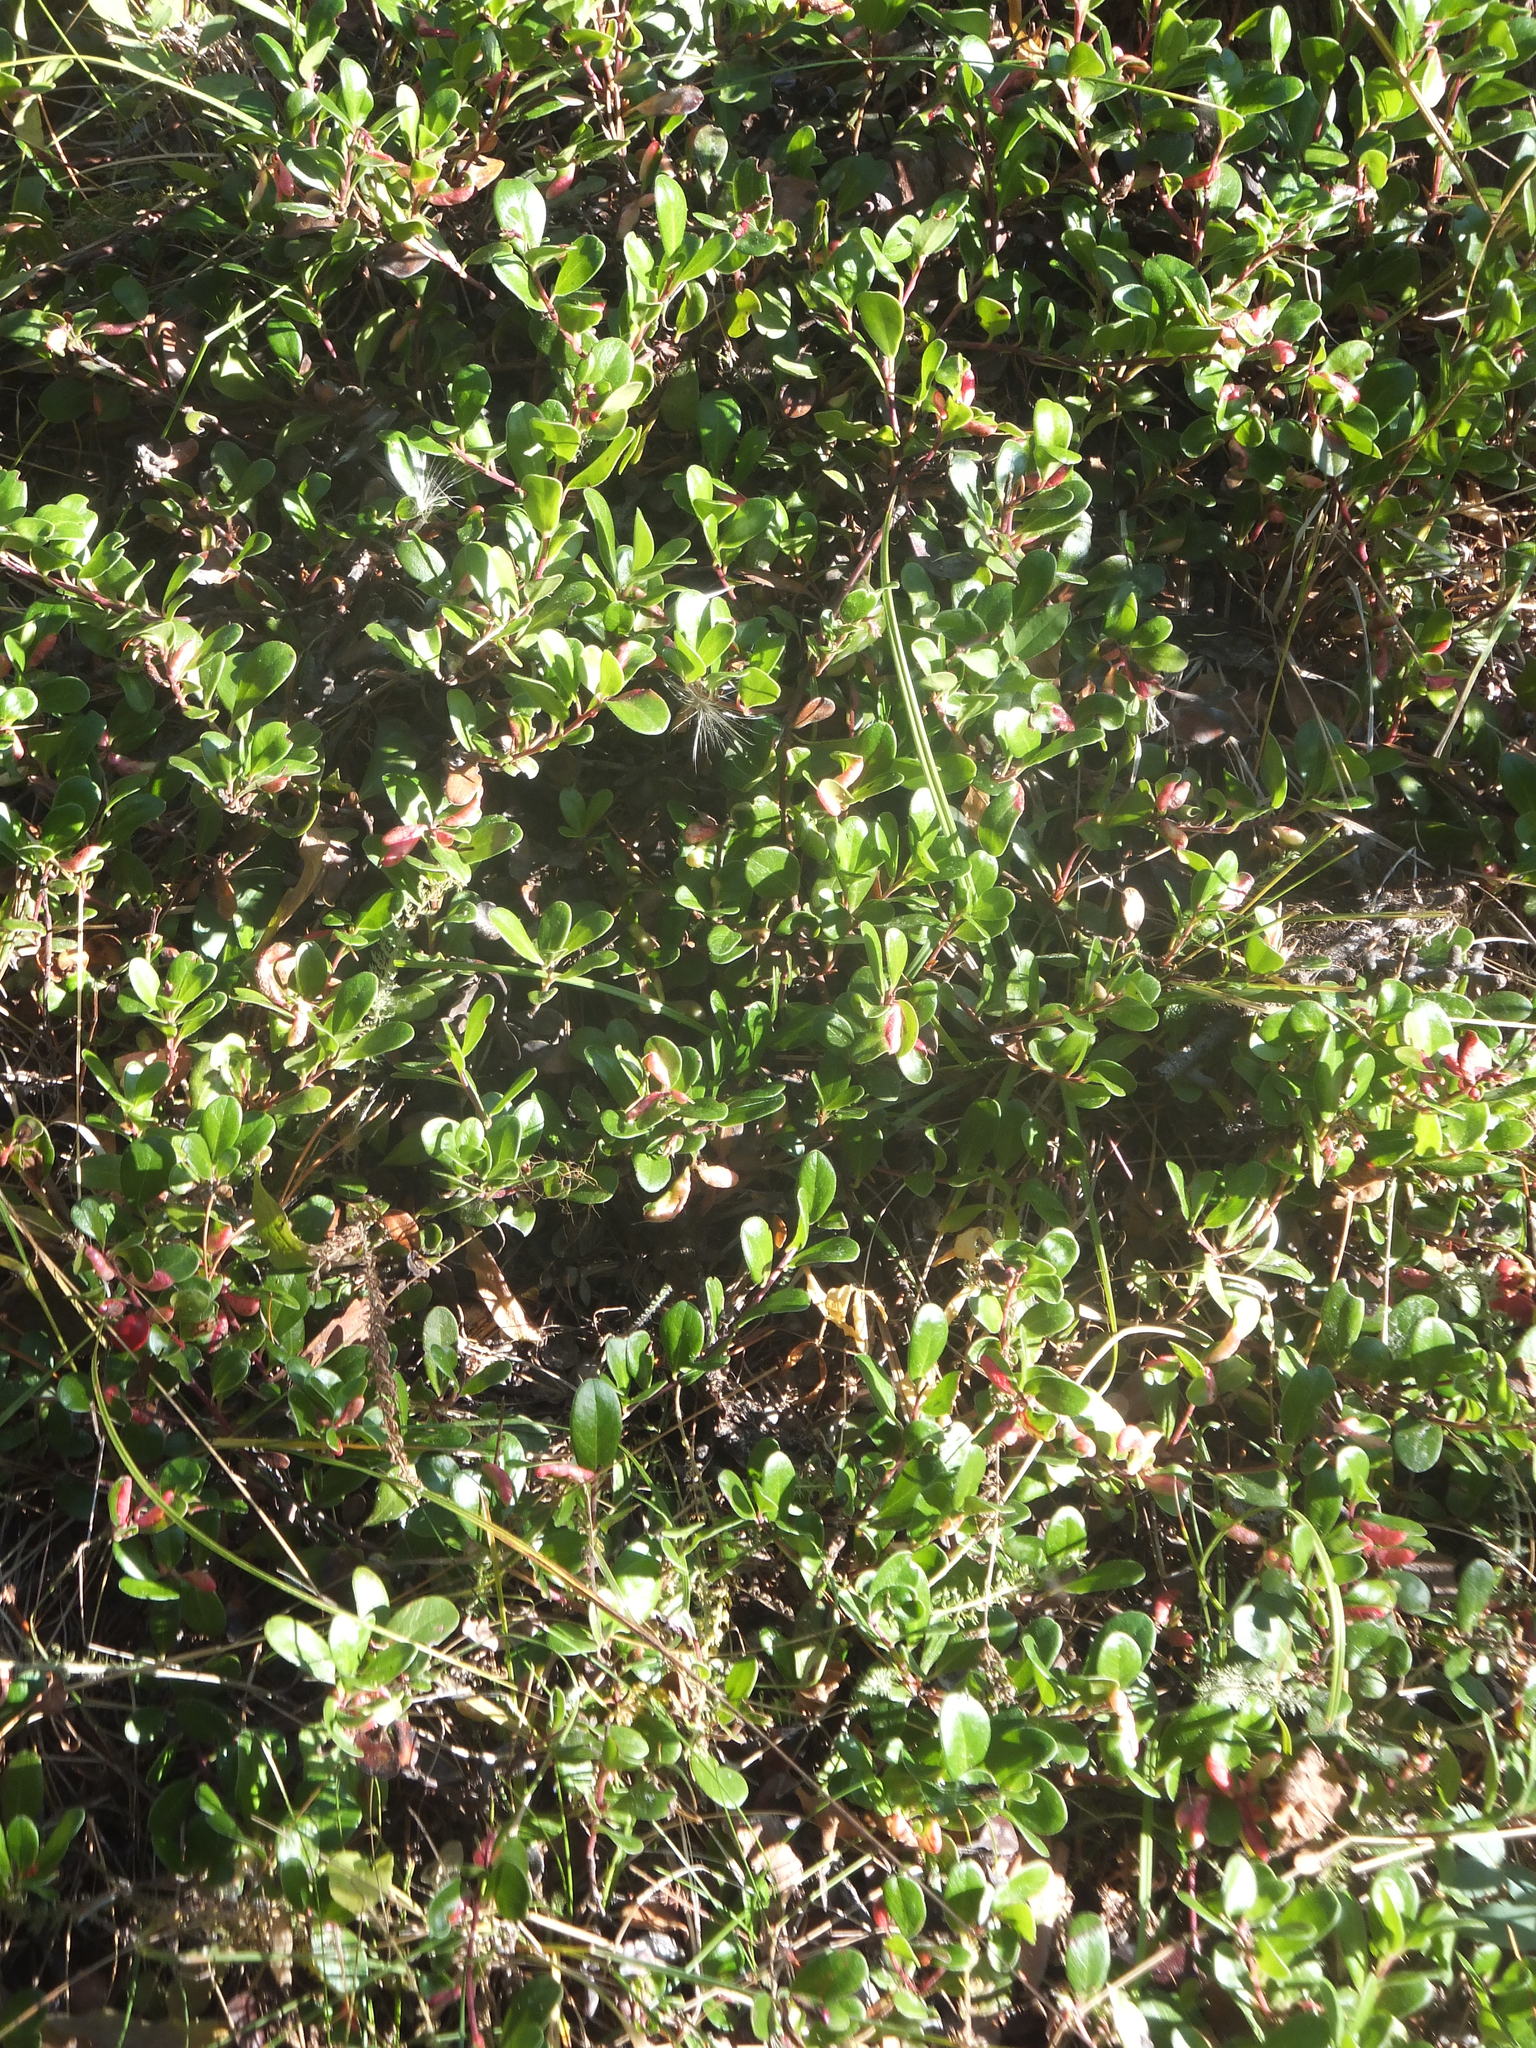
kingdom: Plantae
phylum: Tracheophyta
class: Magnoliopsida
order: Ericales
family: Ericaceae
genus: Arctostaphylos
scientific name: Arctostaphylos uva-ursi
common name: Bearberry
